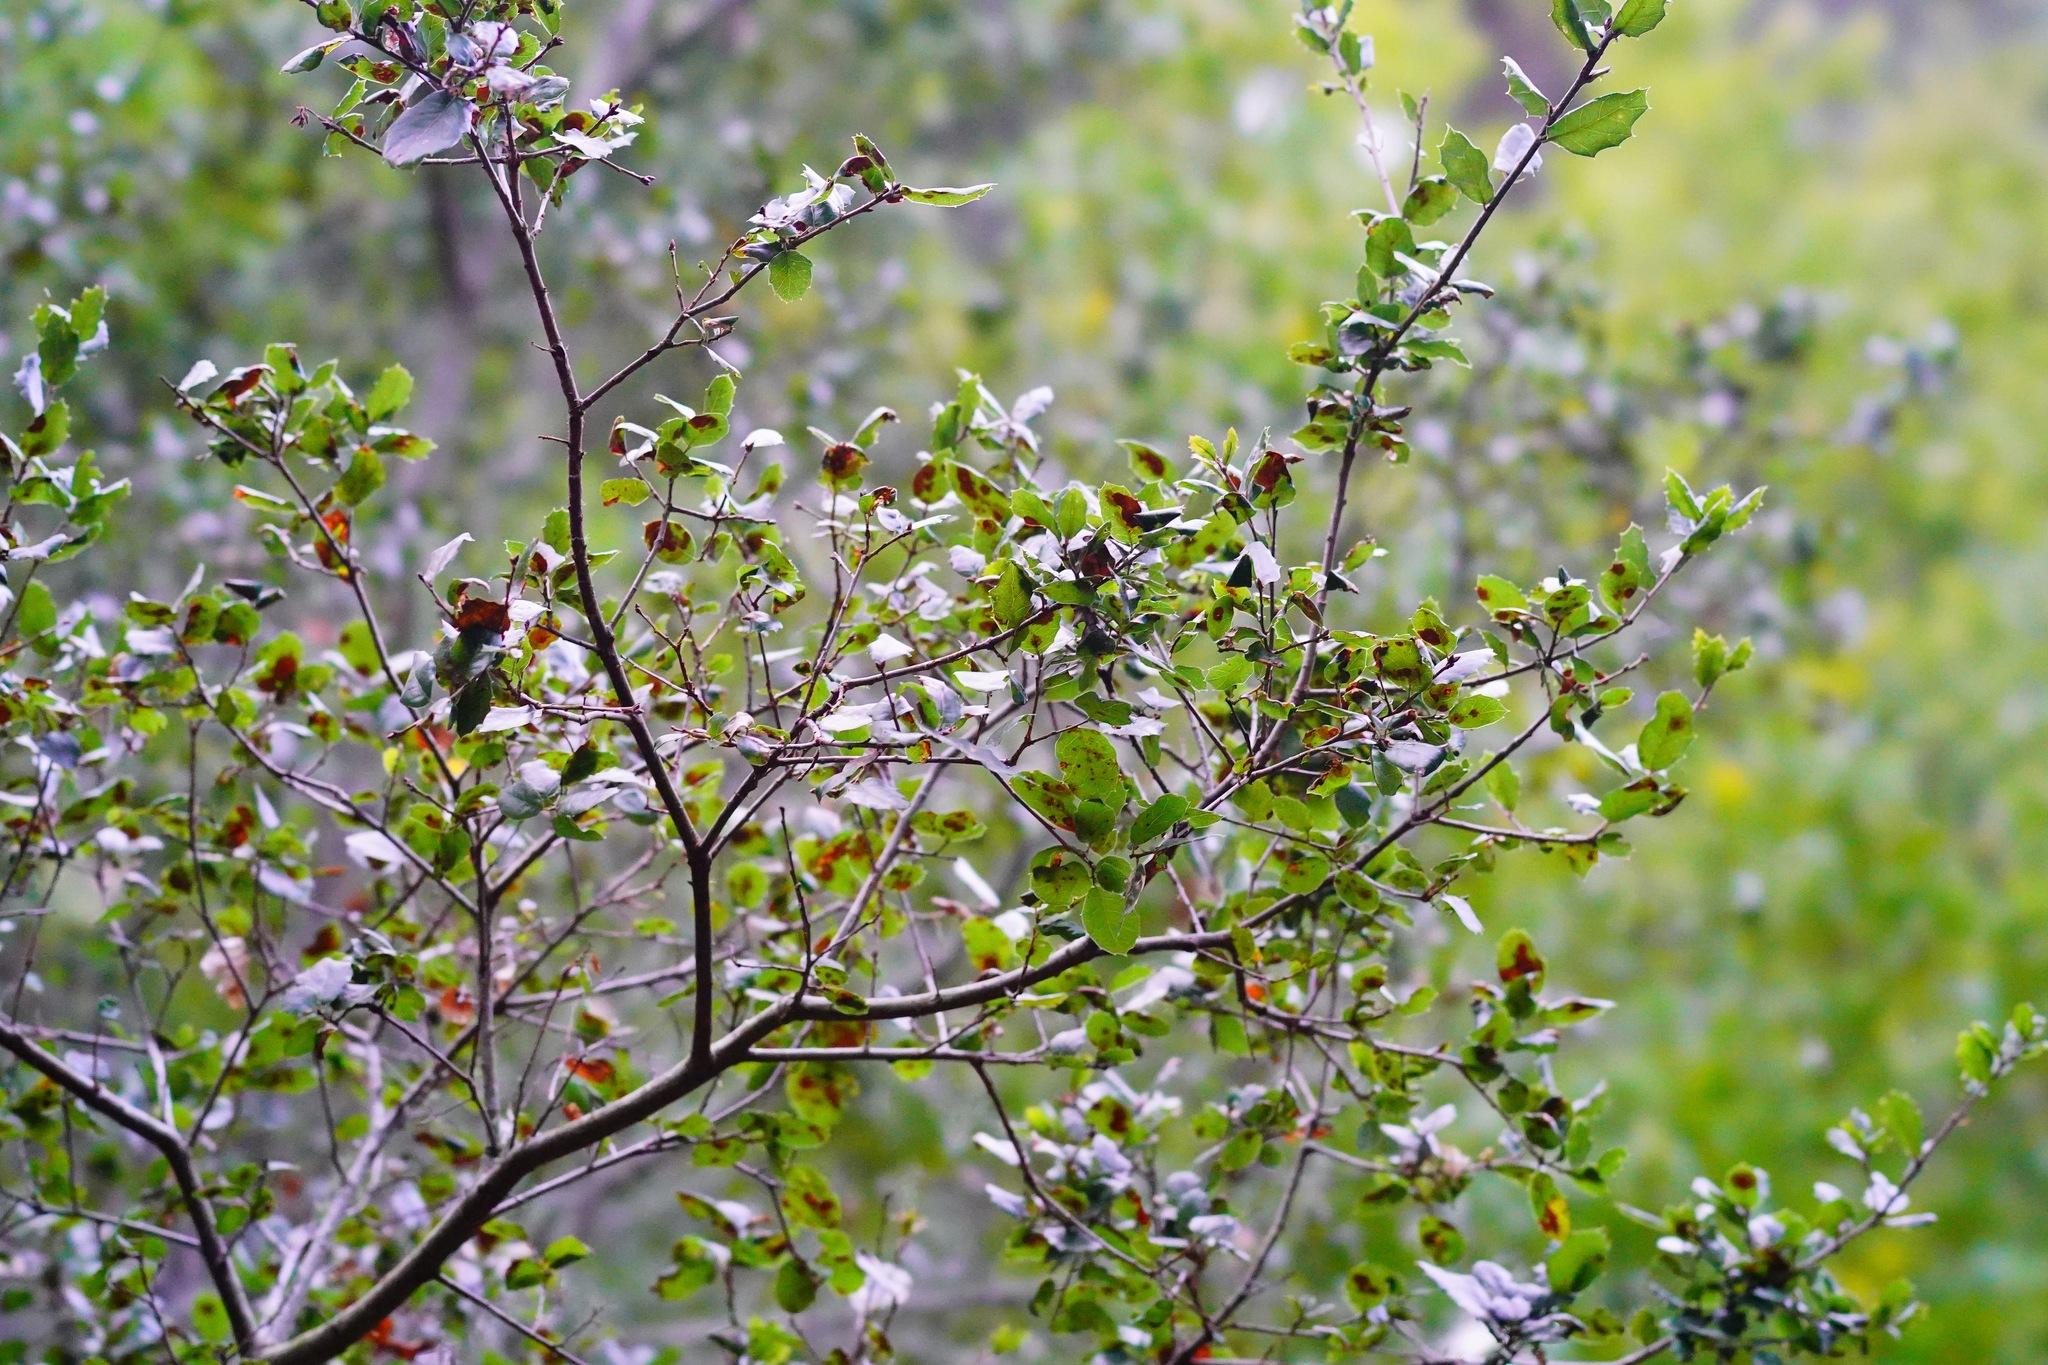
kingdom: Plantae
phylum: Tracheophyta
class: Magnoliopsida
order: Fagales
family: Fagaceae
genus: Quercus
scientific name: Quercus agrifolia
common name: California live oak
